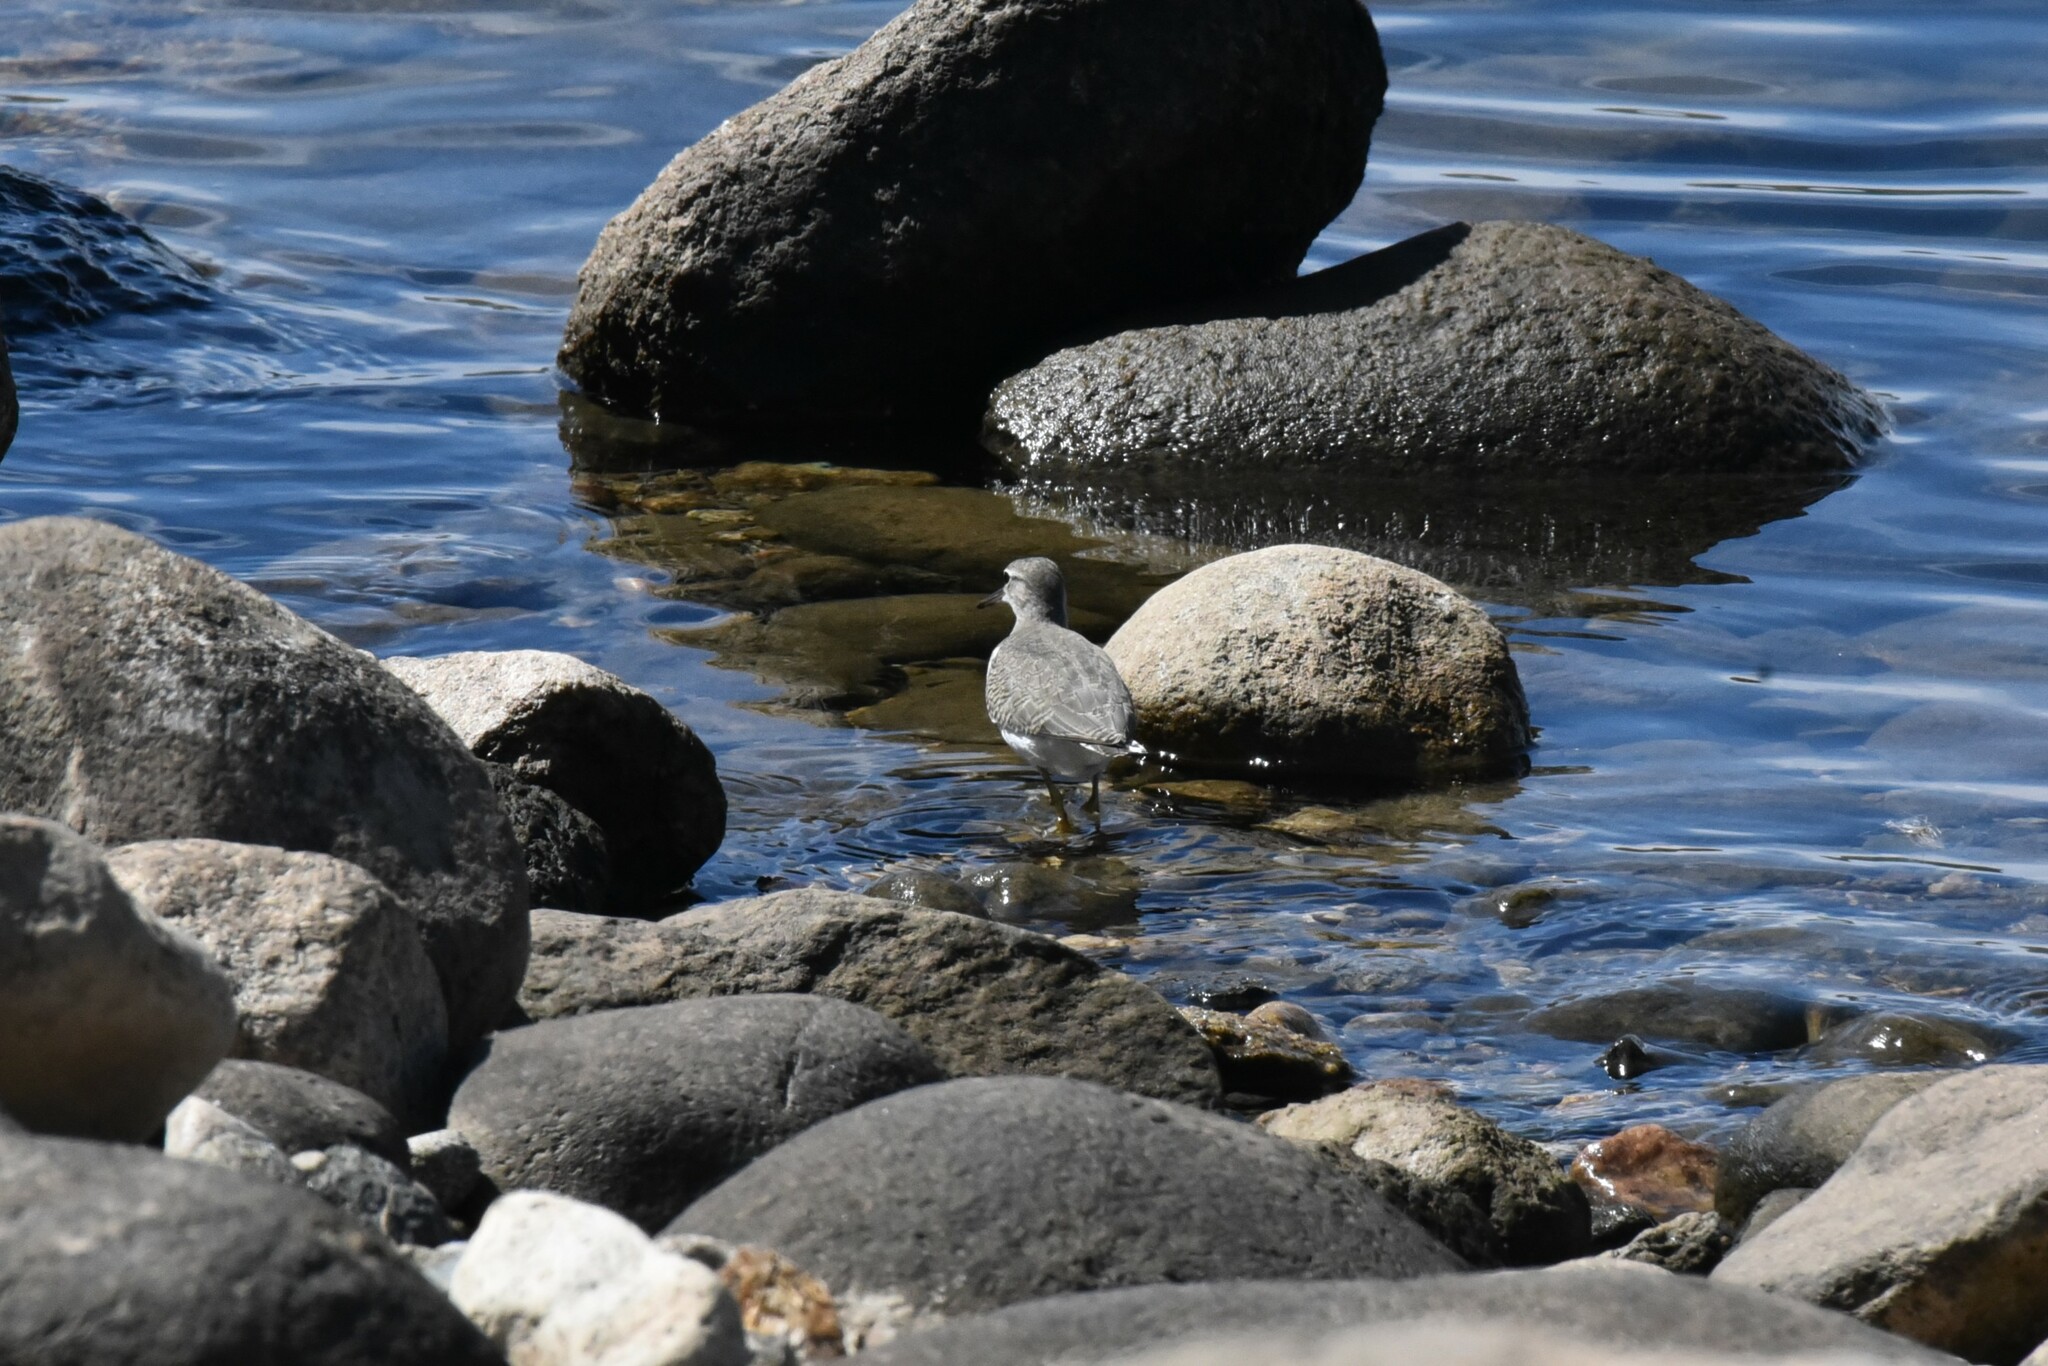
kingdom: Animalia
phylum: Chordata
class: Aves
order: Charadriiformes
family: Scolopacidae
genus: Actitis
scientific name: Actitis macularius
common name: Spotted sandpiper
